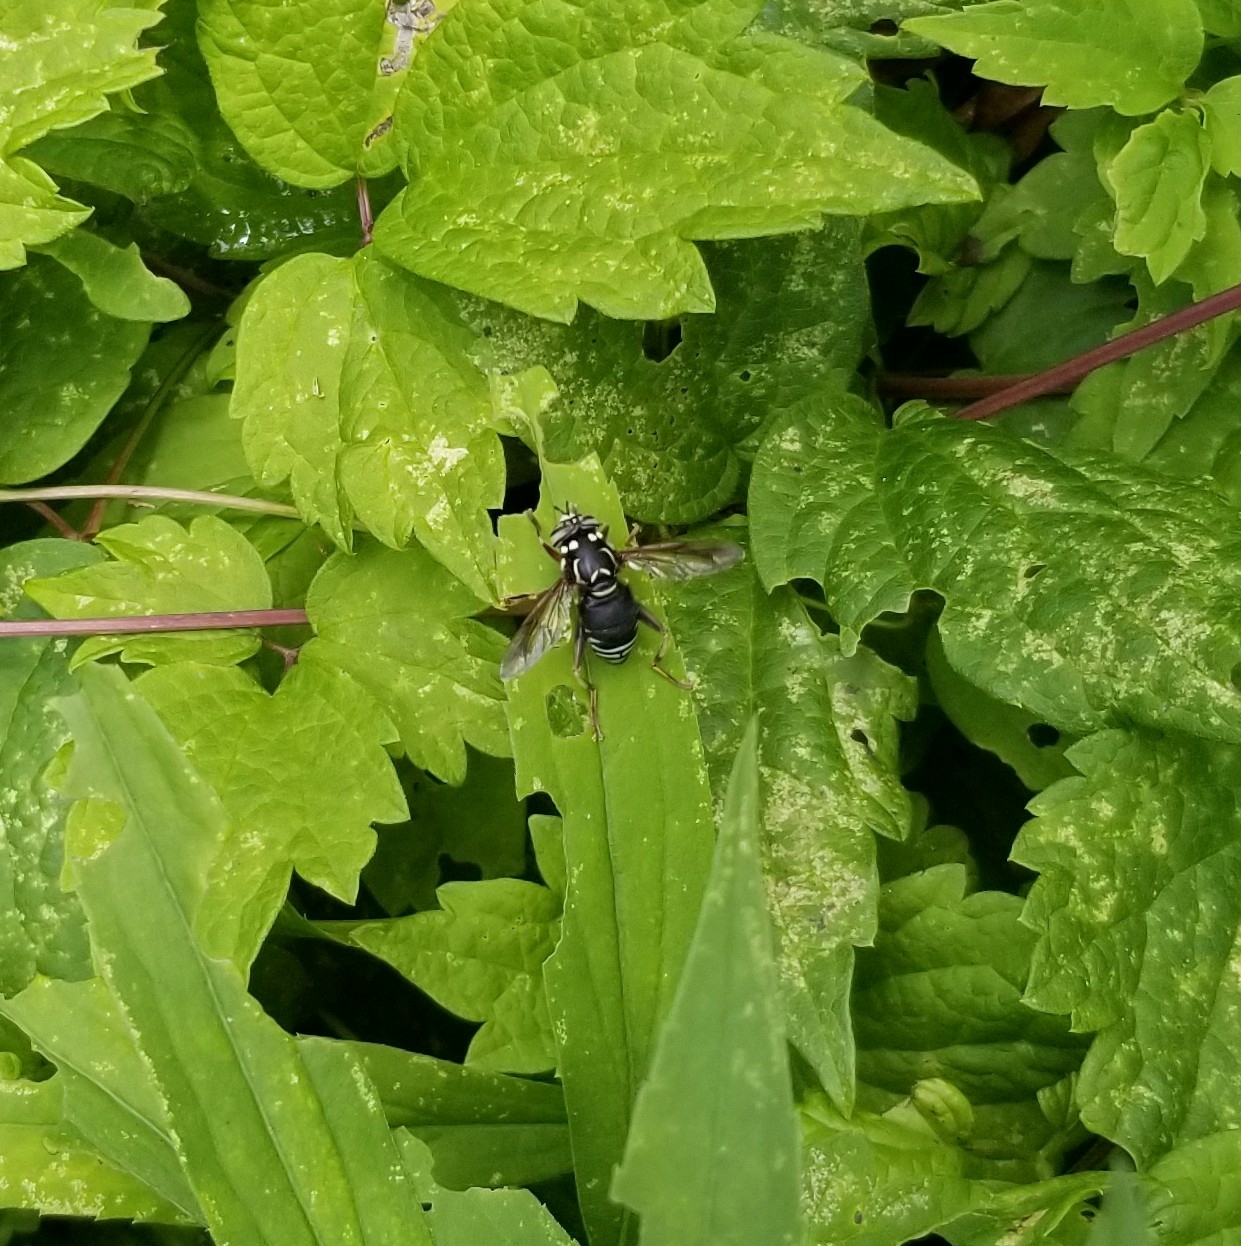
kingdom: Animalia
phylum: Arthropoda
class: Insecta
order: Diptera
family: Syrphidae
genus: Spilomyia
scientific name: Spilomyia fusca
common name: Bald-faced hornet fly
